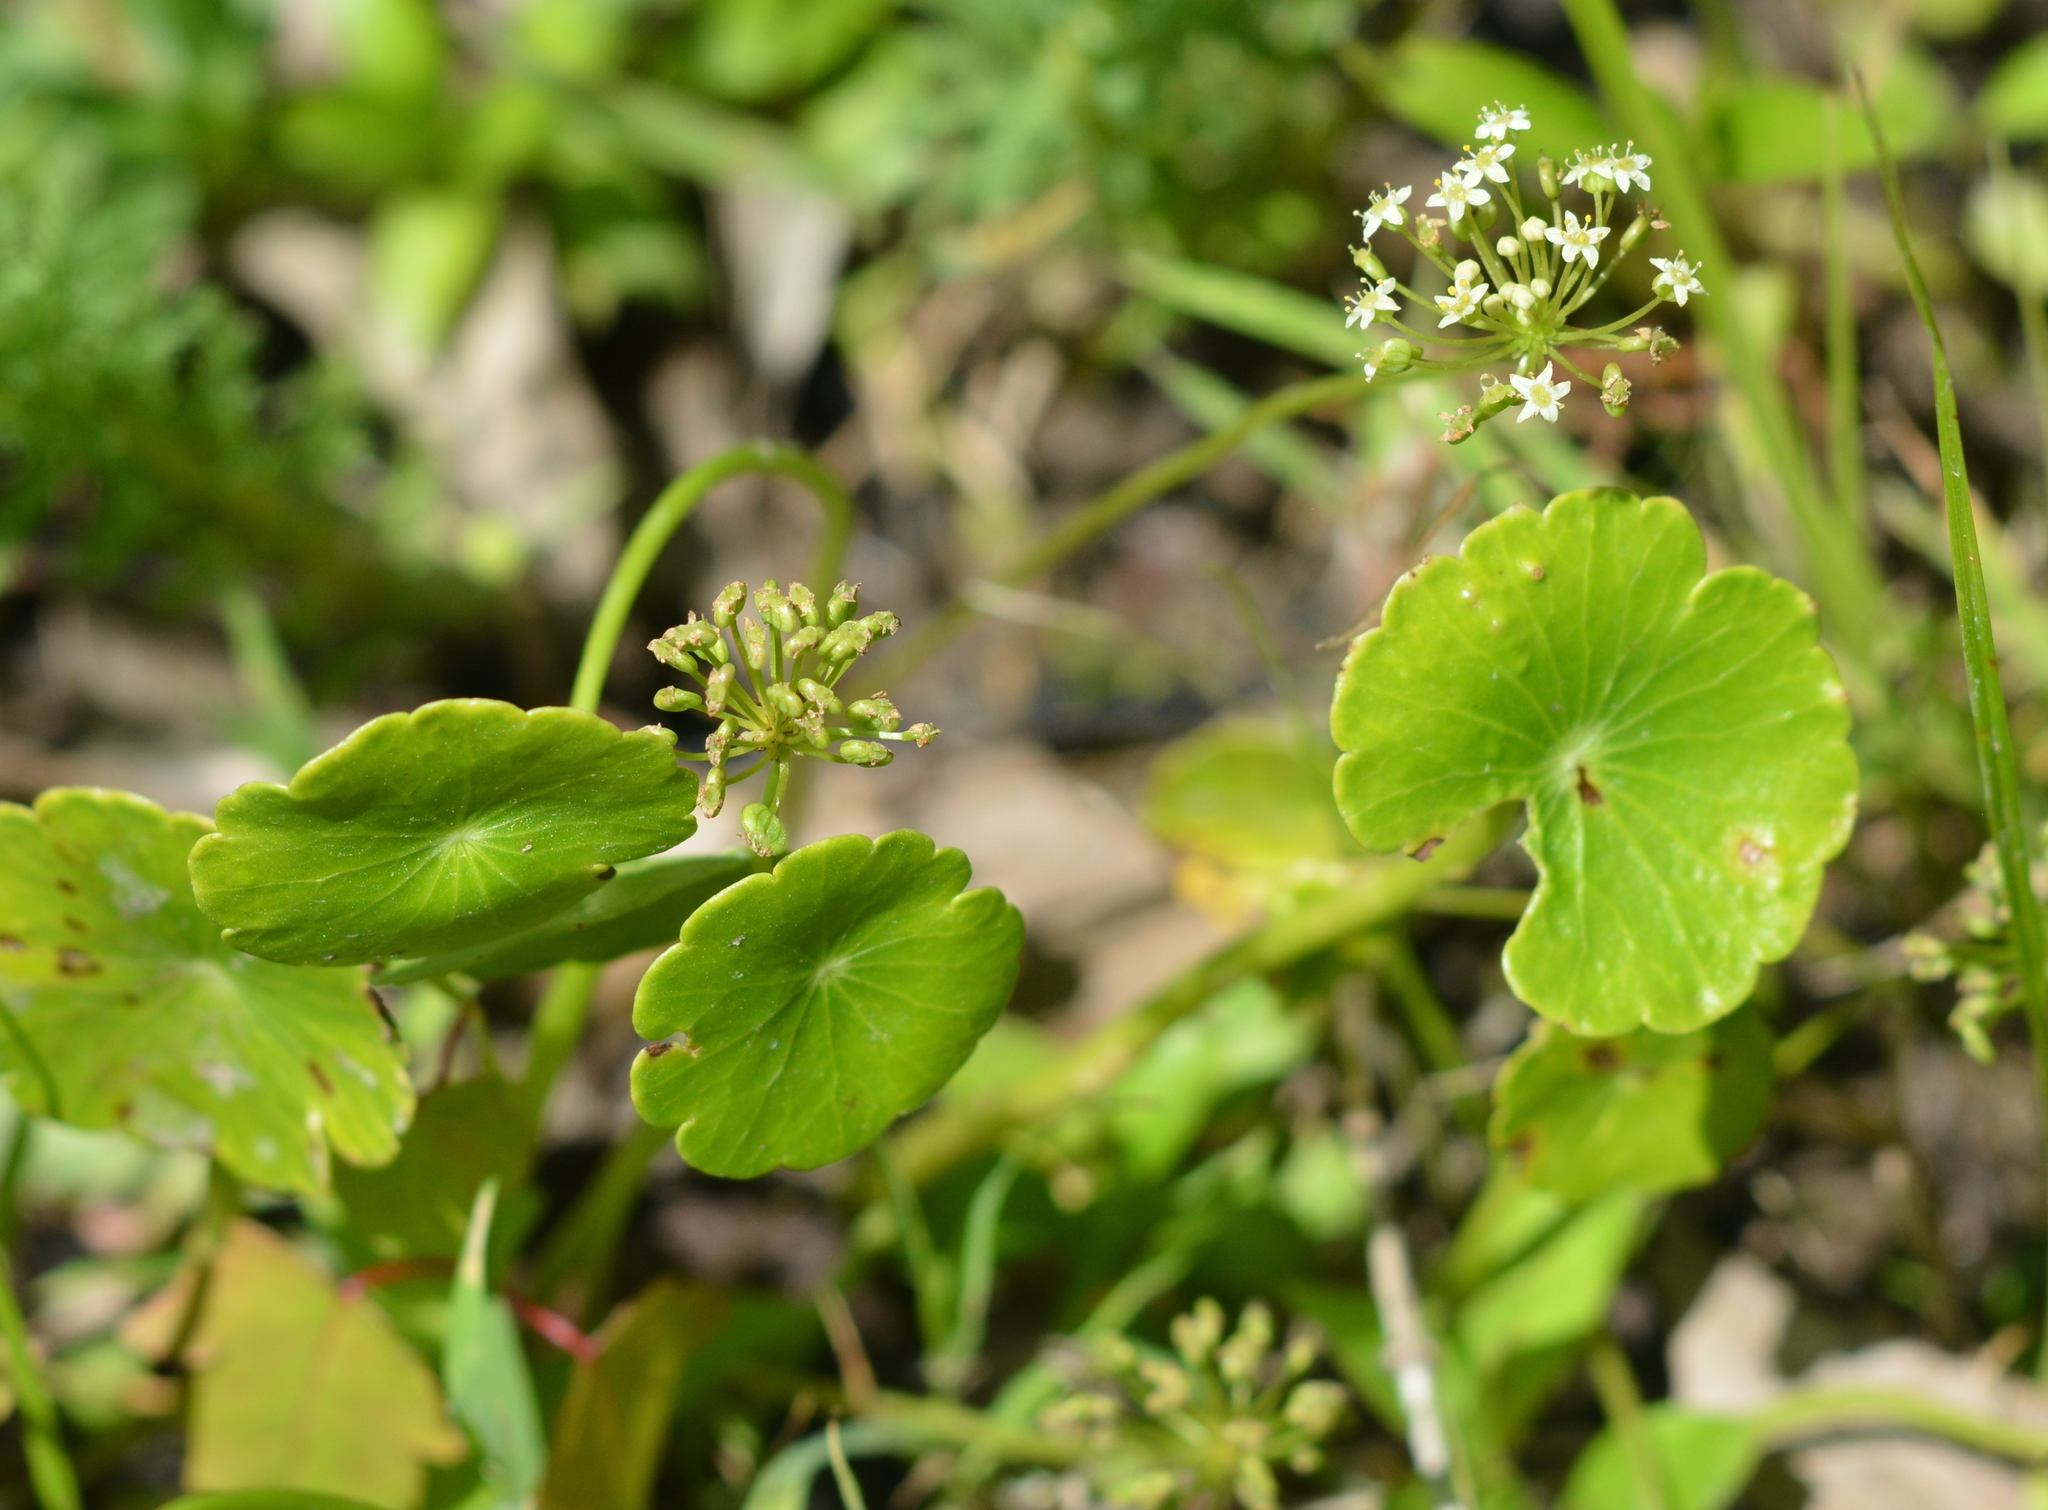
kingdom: Plantae
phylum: Tracheophyta
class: Magnoliopsida
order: Apiales
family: Araliaceae
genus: Hydrocotyle
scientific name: Hydrocotyle umbellata
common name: Water pennywort
